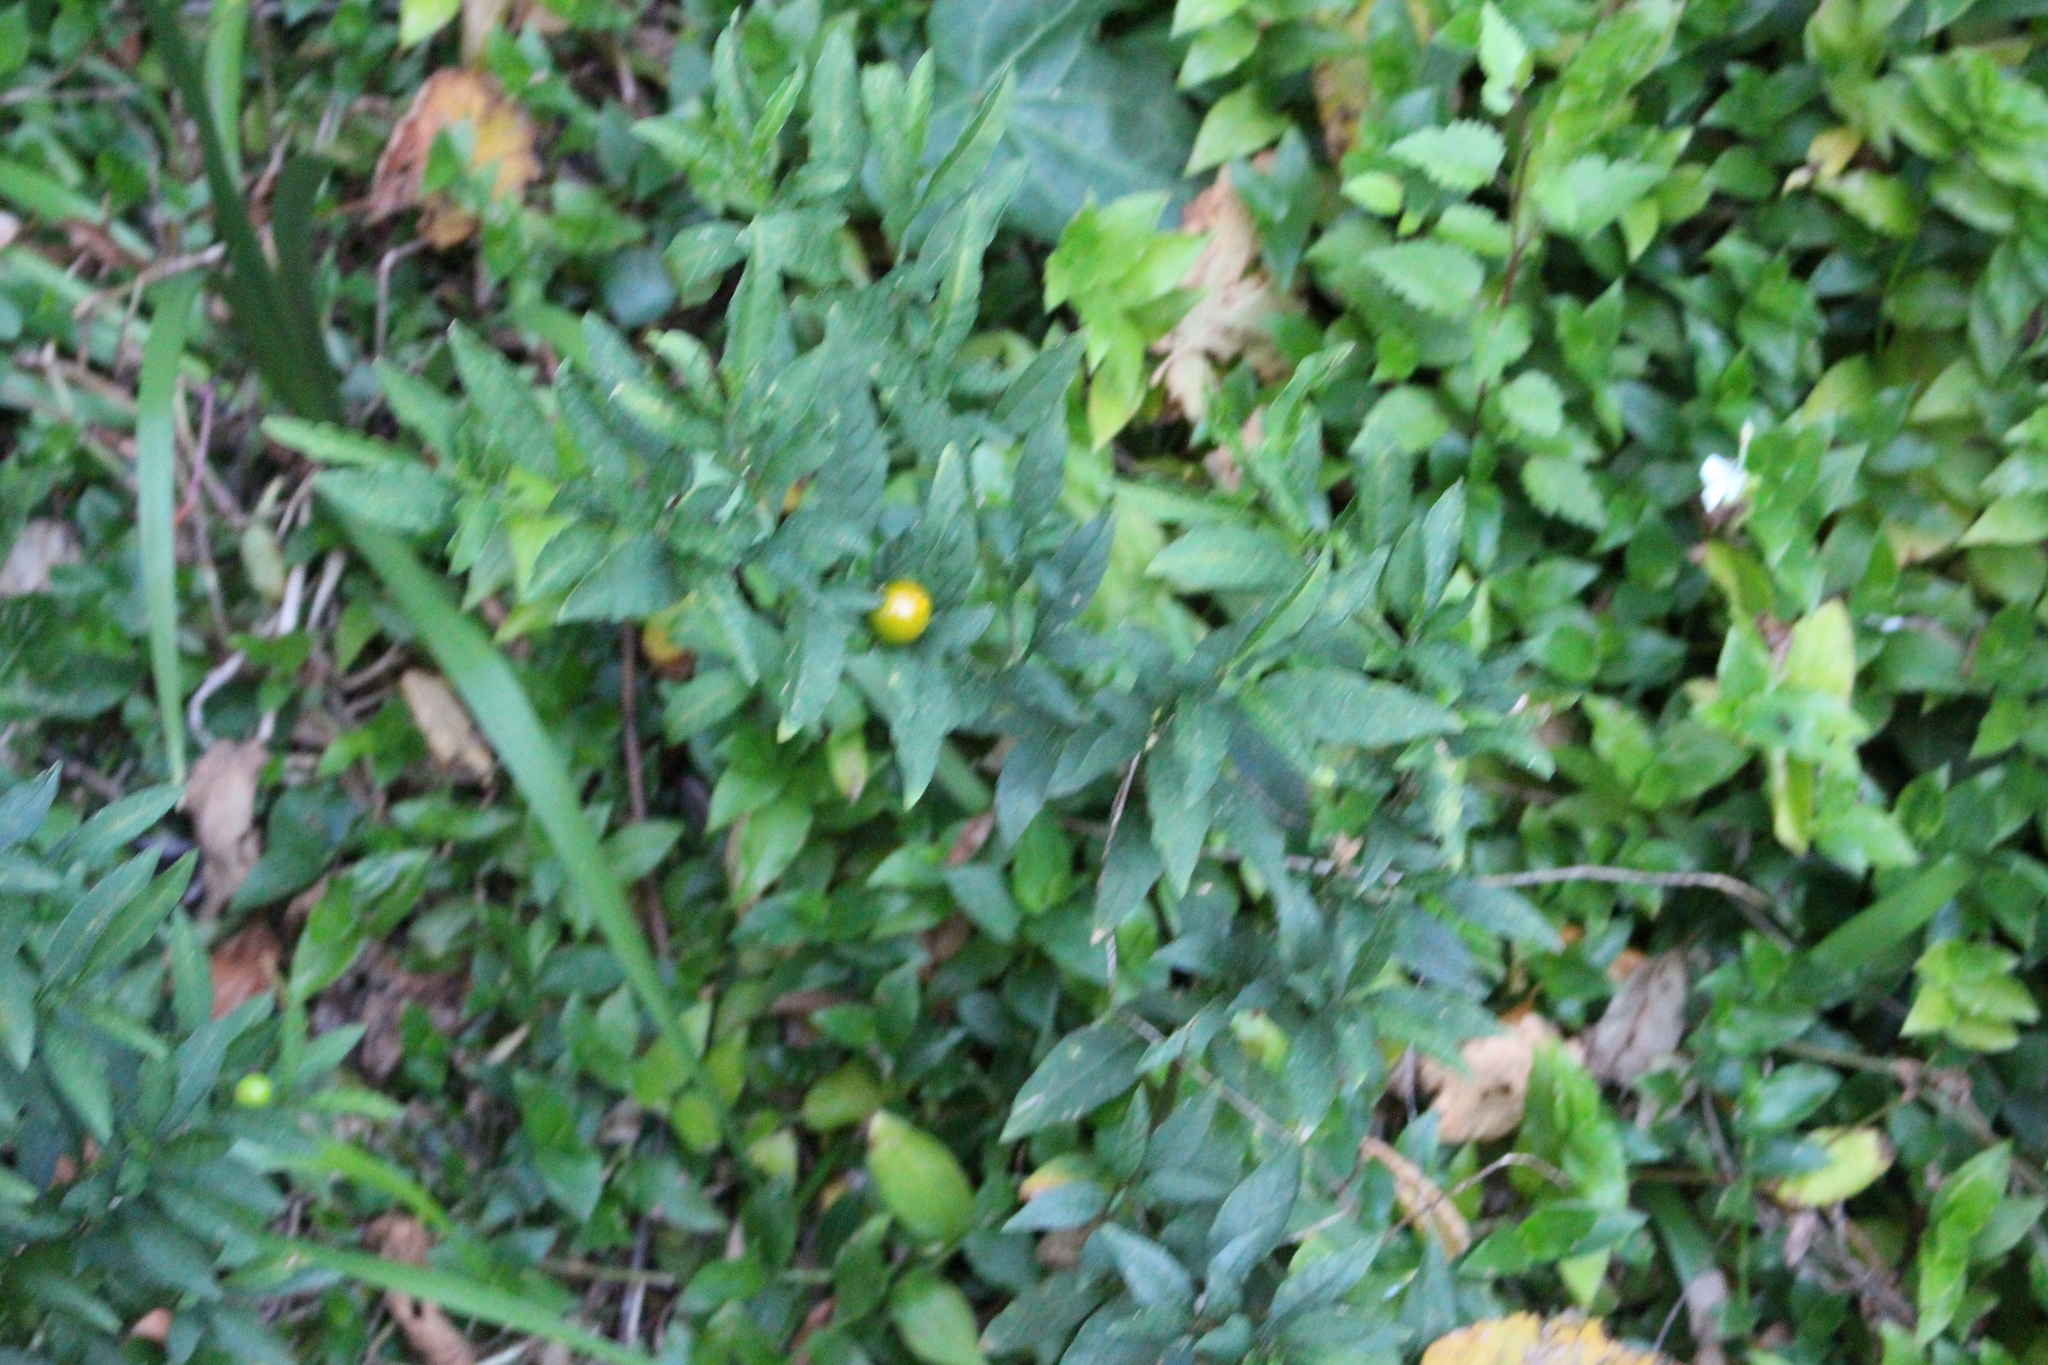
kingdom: Plantae
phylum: Tracheophyta
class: Magnoliopsida
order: Solanales
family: Solanaceae
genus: Solanum
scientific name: Solanum pseudocapsicum
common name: Jerusalem cherry
